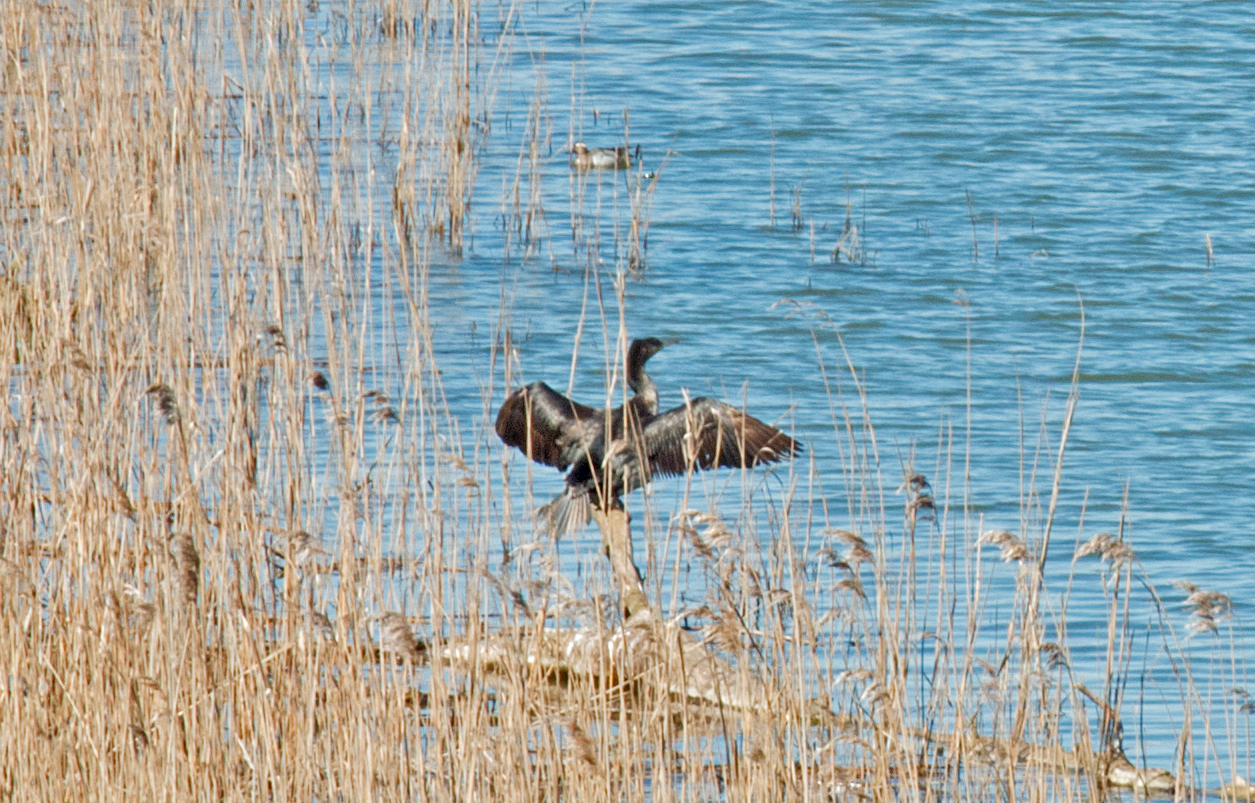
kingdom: Animalia
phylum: Chordata
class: Aves
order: Suliformes
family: Phalacrocoracidae
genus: Phalacrocorax
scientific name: Phalacrocorax carbo
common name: Great cormorant
